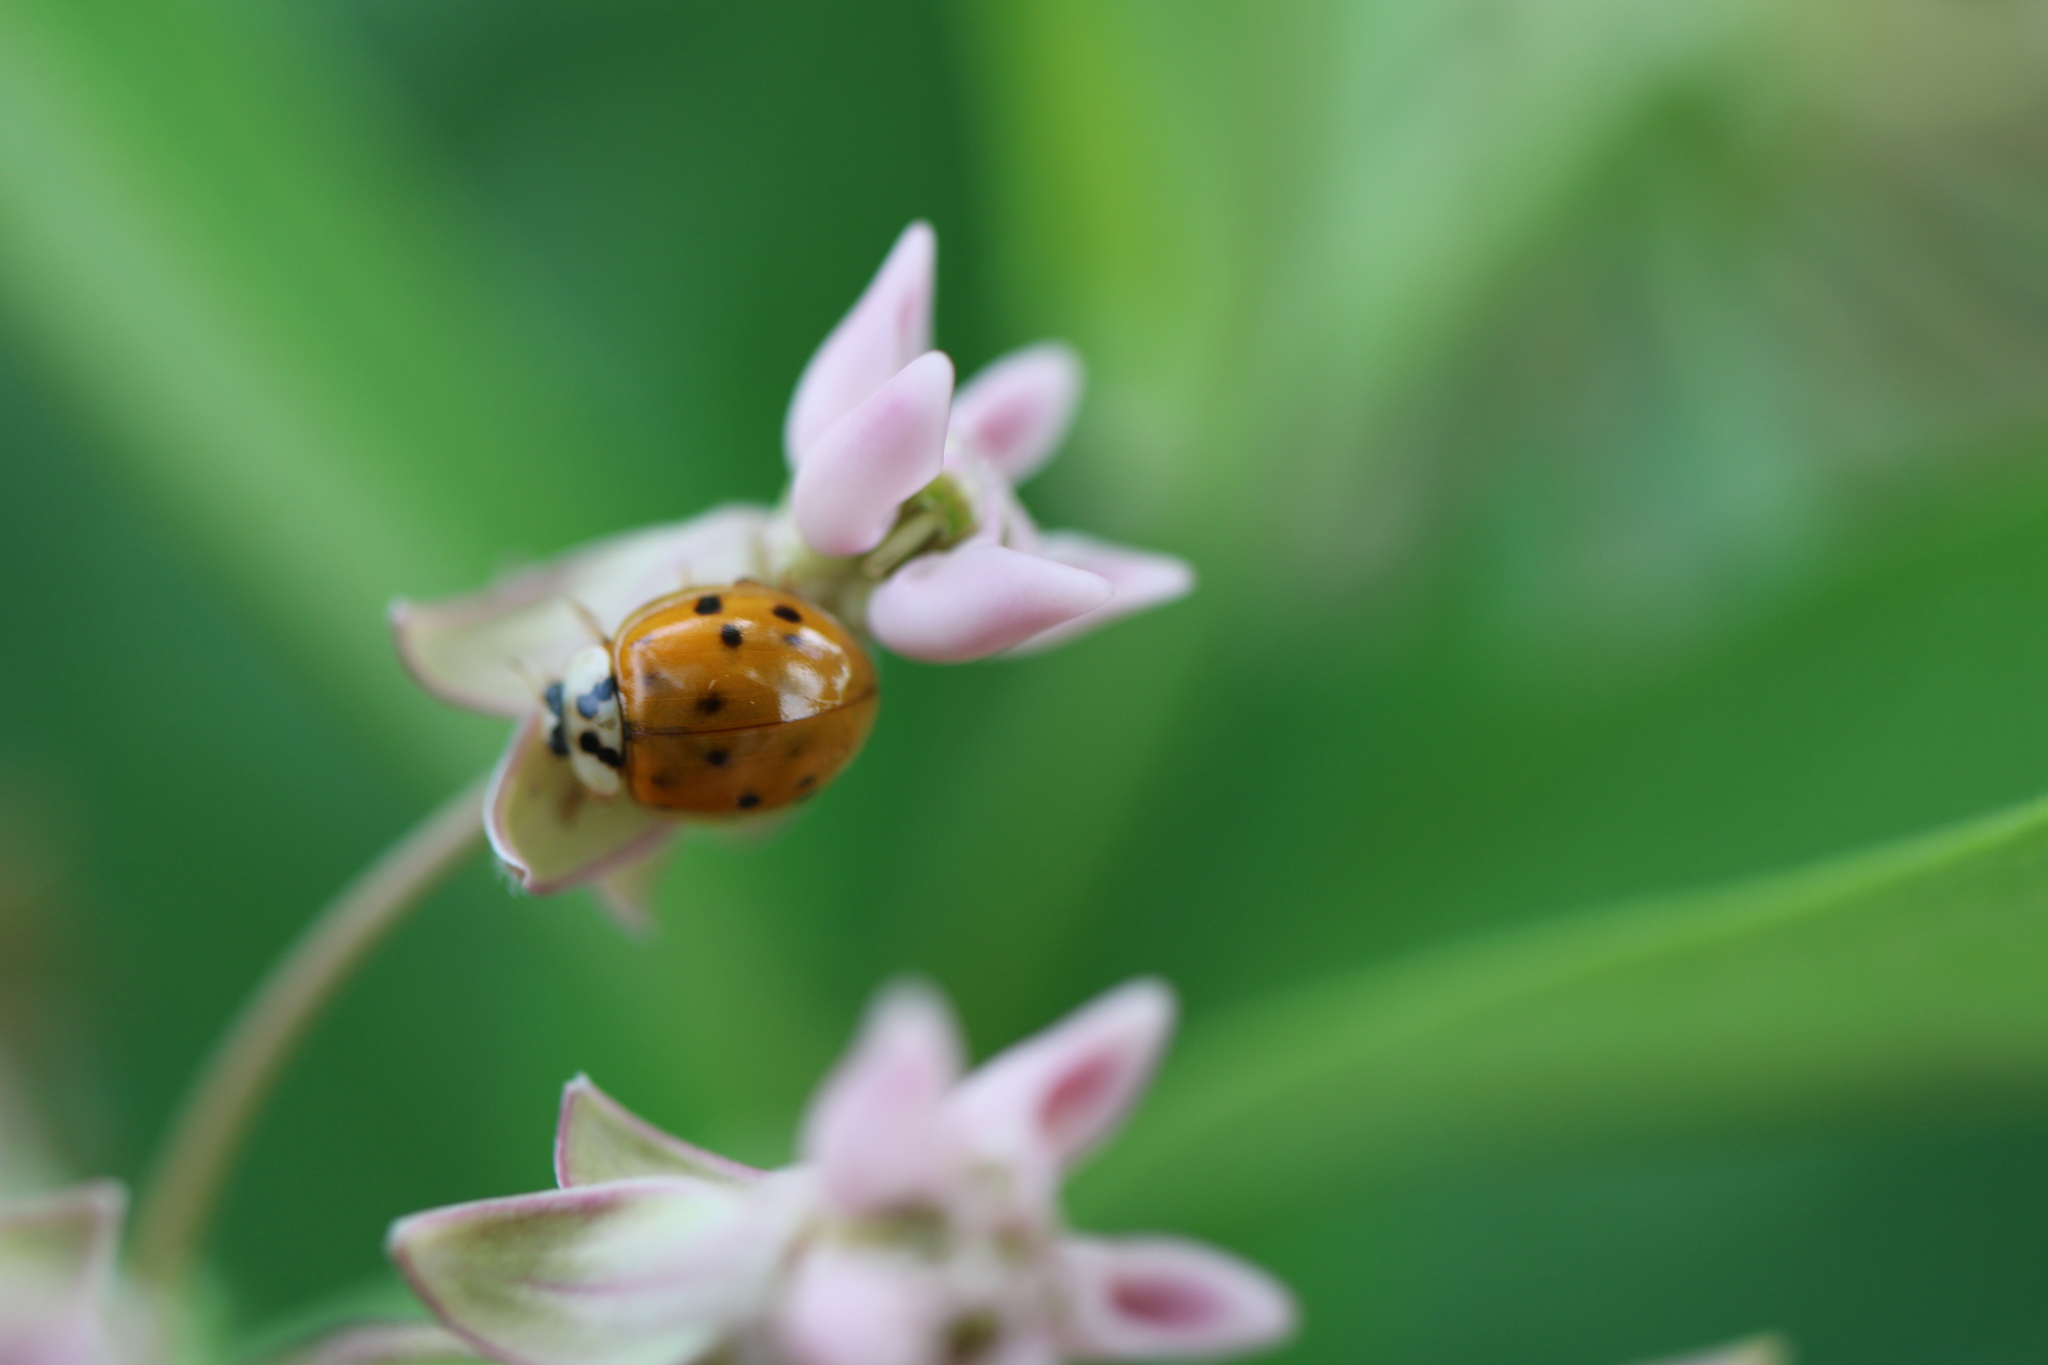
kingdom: Animalia
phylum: Arthropoda
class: Insecta
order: Coleoptera
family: Coccinellidae
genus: Harmonia
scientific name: Harmonia axyridis
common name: Harlequin ladybird
